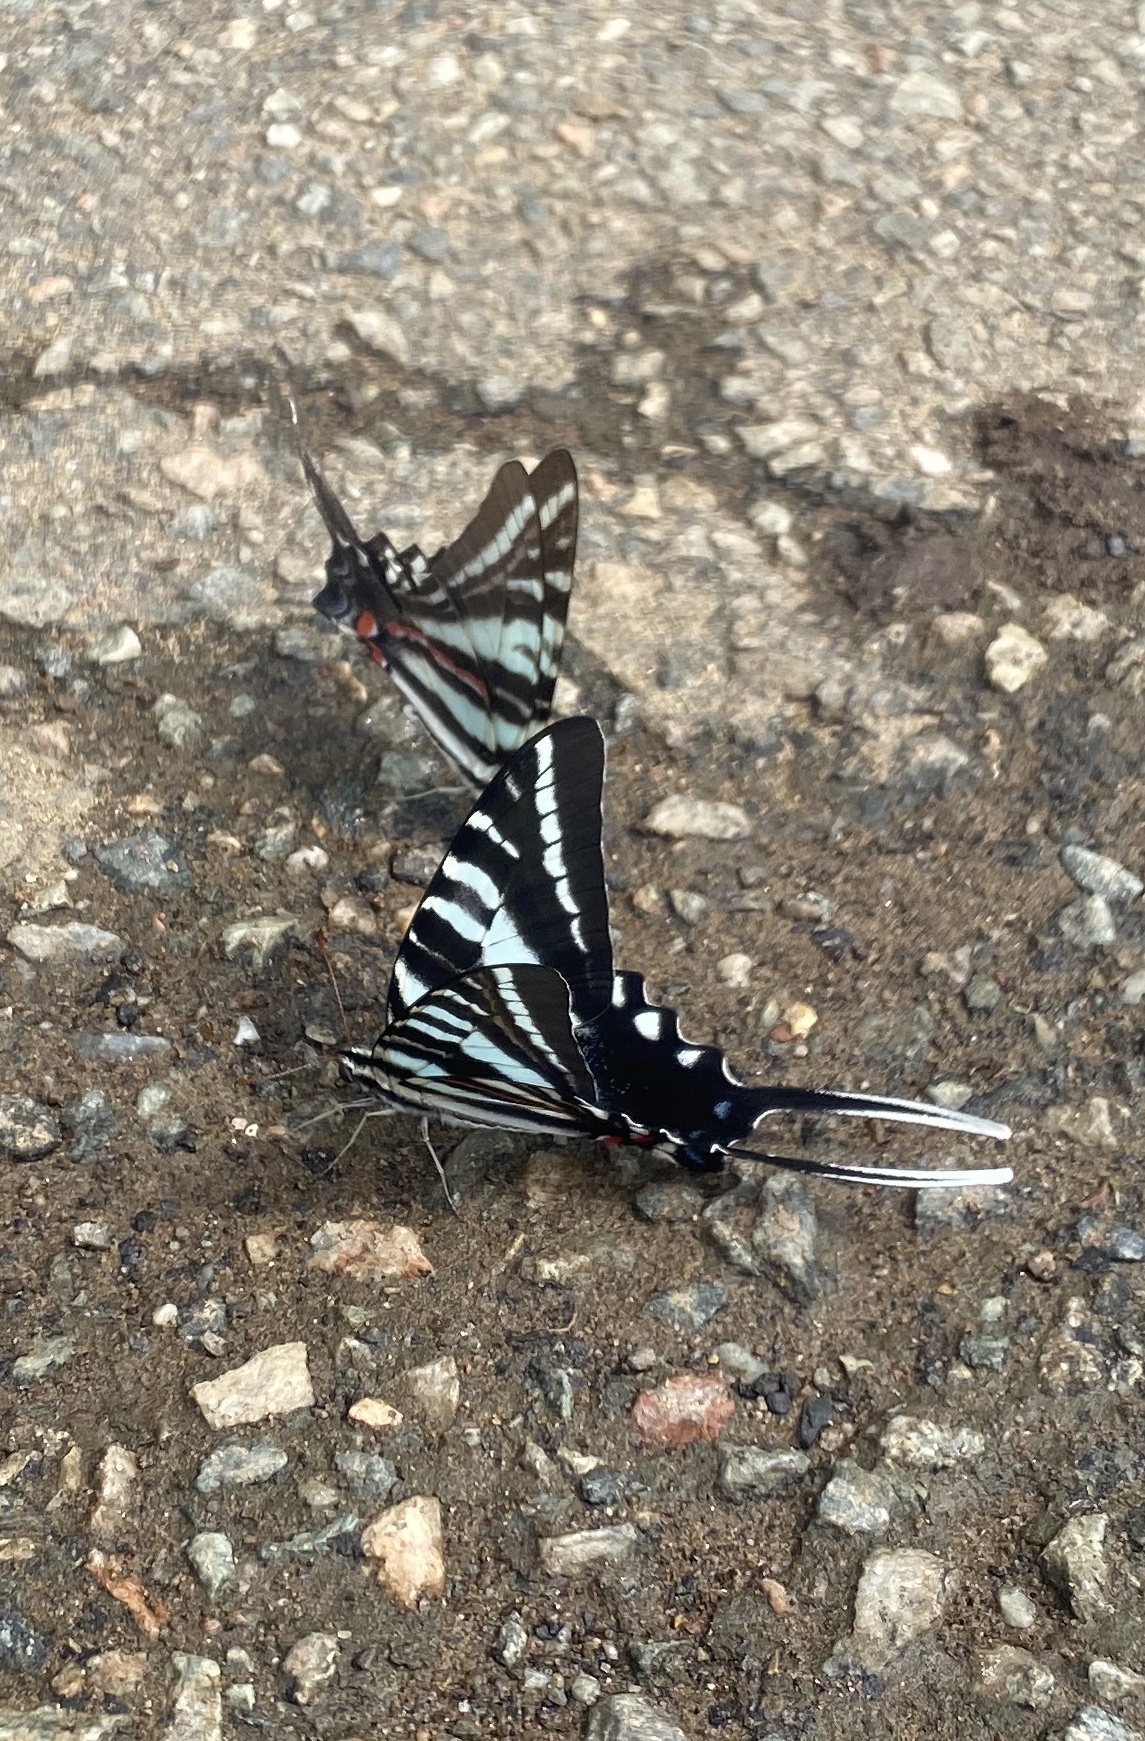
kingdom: Animalia
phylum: Arthropoda
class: Insecta
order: Lepidoptera
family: Papilionidae
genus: Protographium
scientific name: Protographium marcellus
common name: Zebra swallowtail
